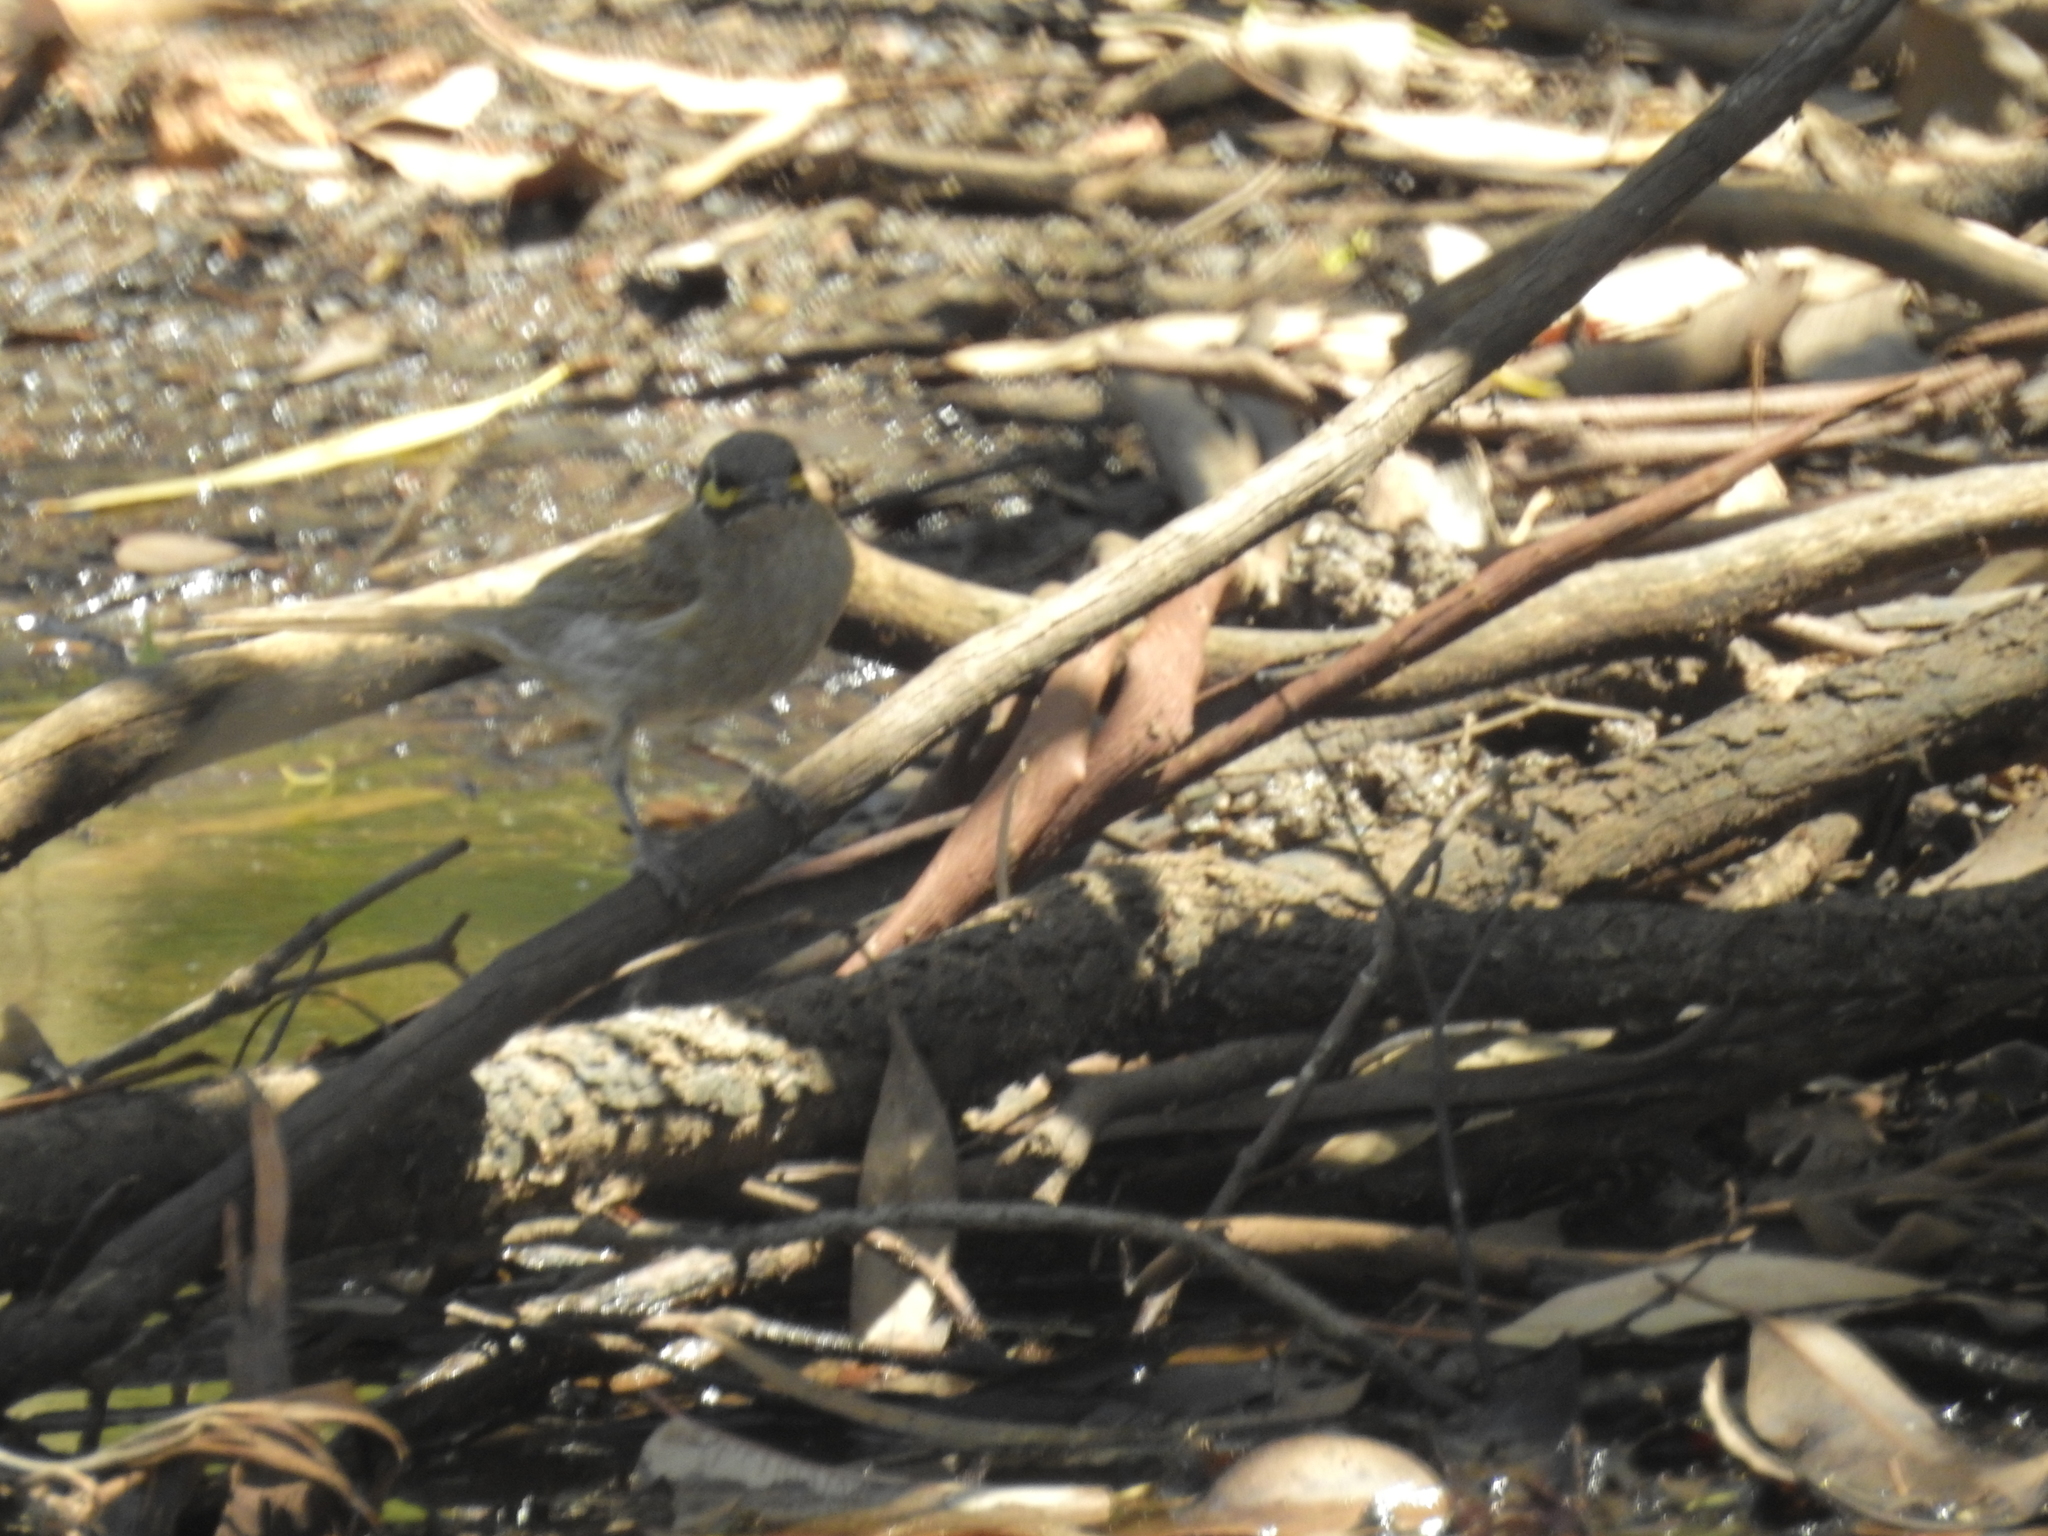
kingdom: Animalia
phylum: Chordata
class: Aves
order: Passeriformes
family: Meliphagidae
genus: Caligavis
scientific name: Caligavis chrysops
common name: Yellow-faced honeyeater
